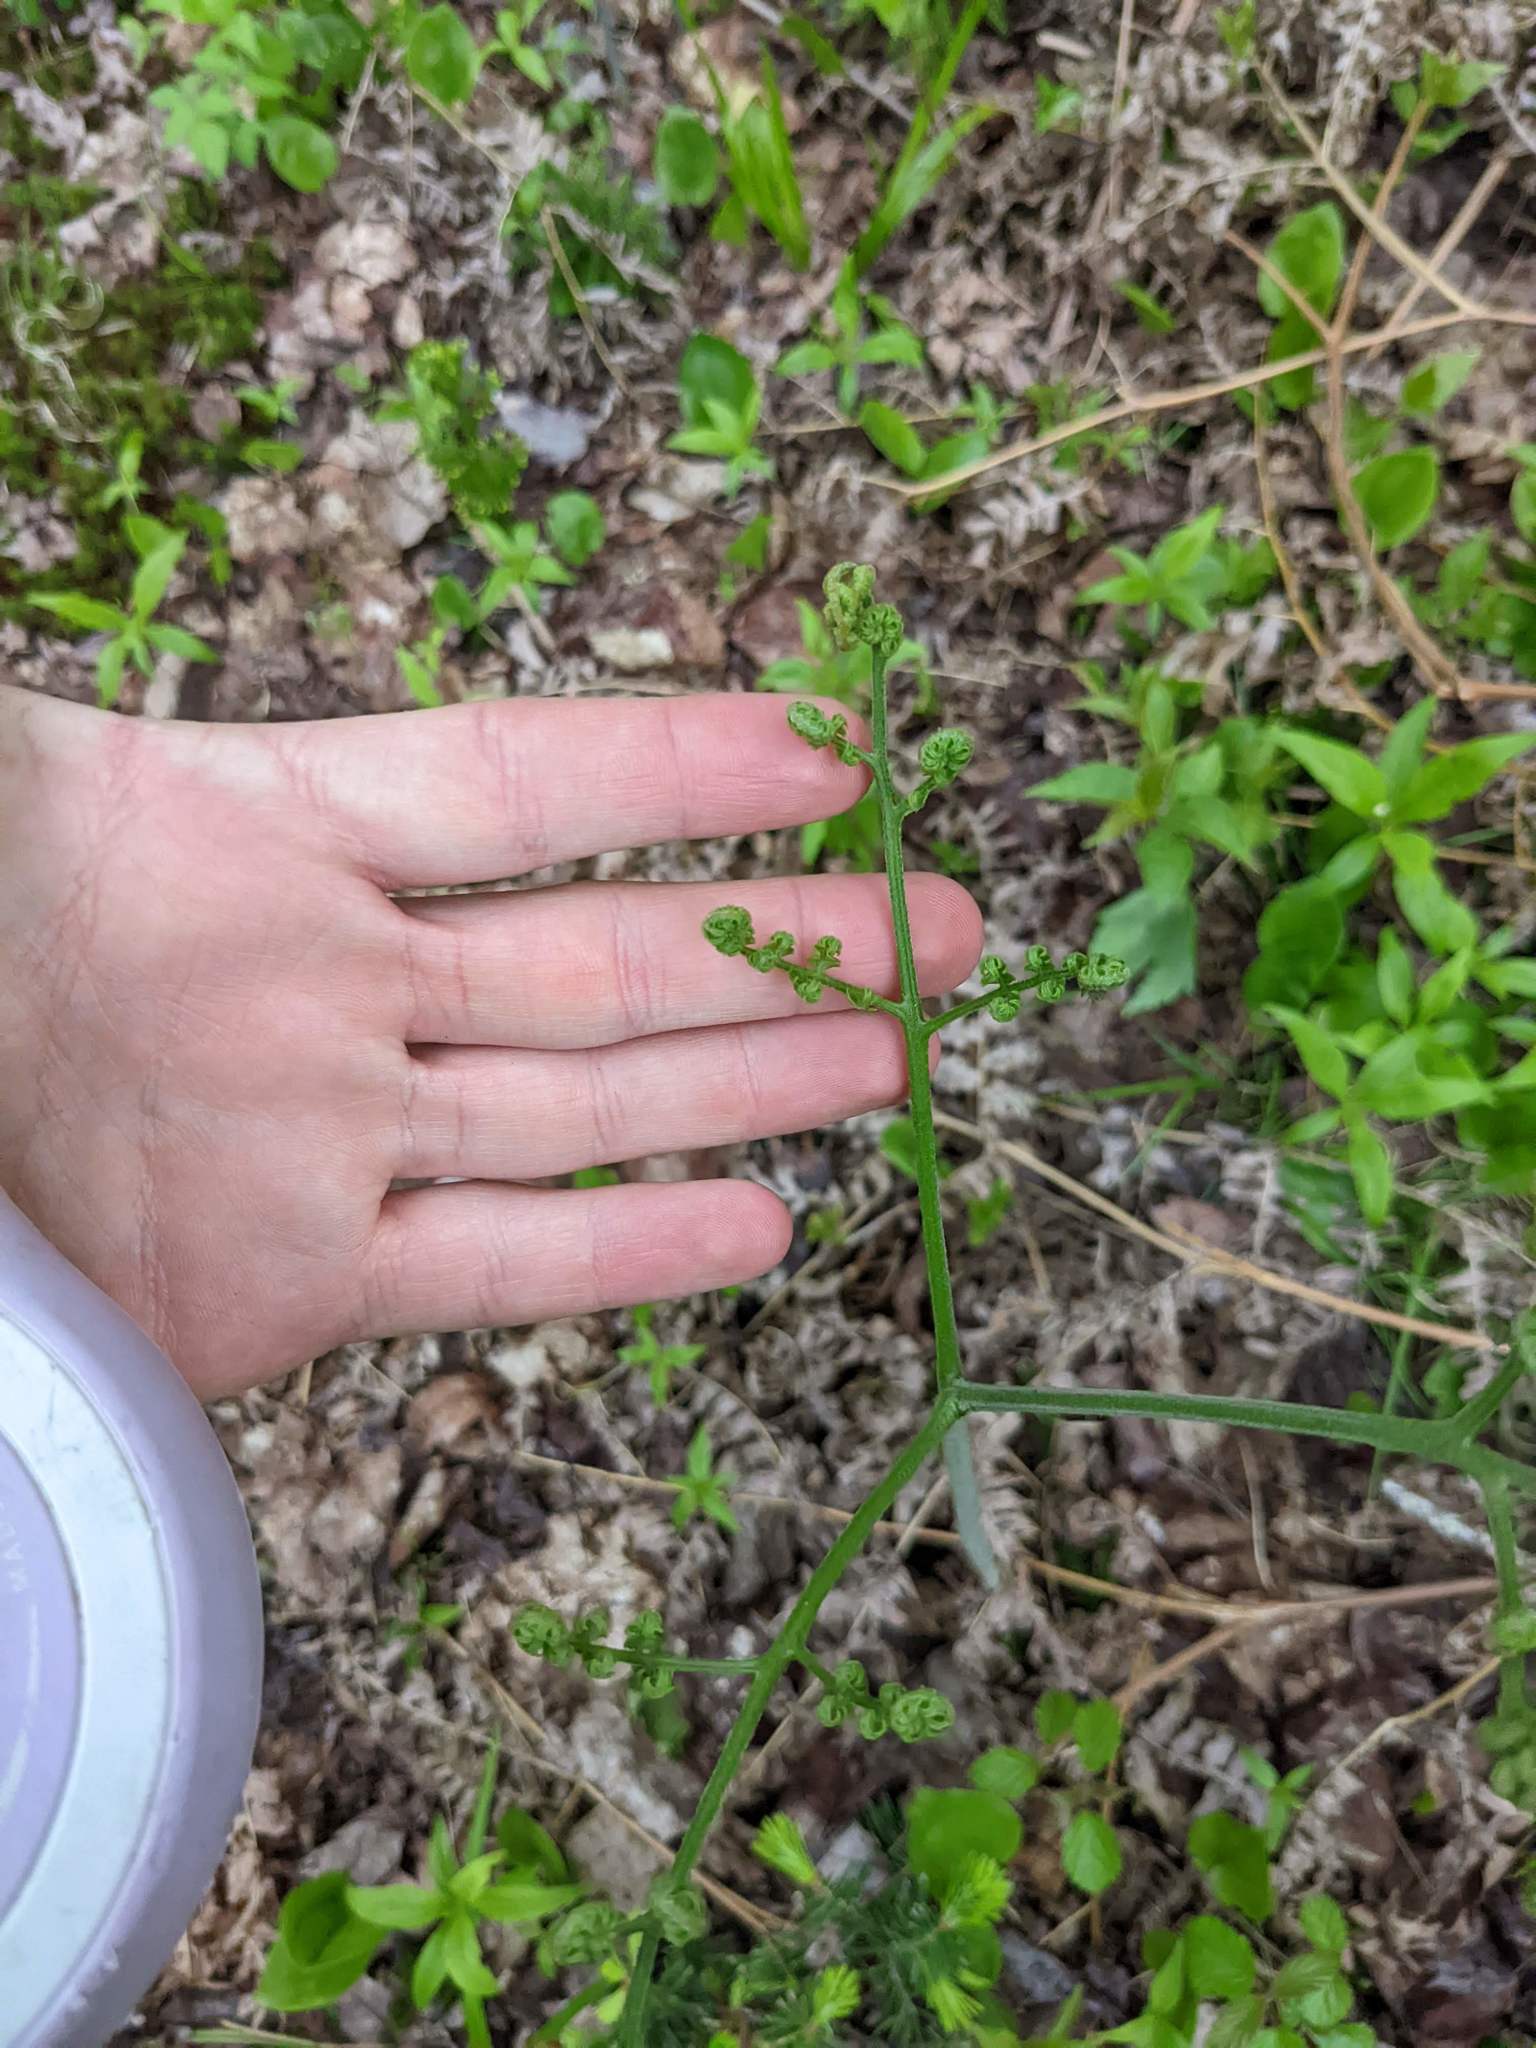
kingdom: Plantae
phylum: Tracheophyta
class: Polypodiopsida
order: Polypodiales
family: Dennstaedtiaceae
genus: Pteridium
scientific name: Pteridium aquilinum
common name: Bracken
